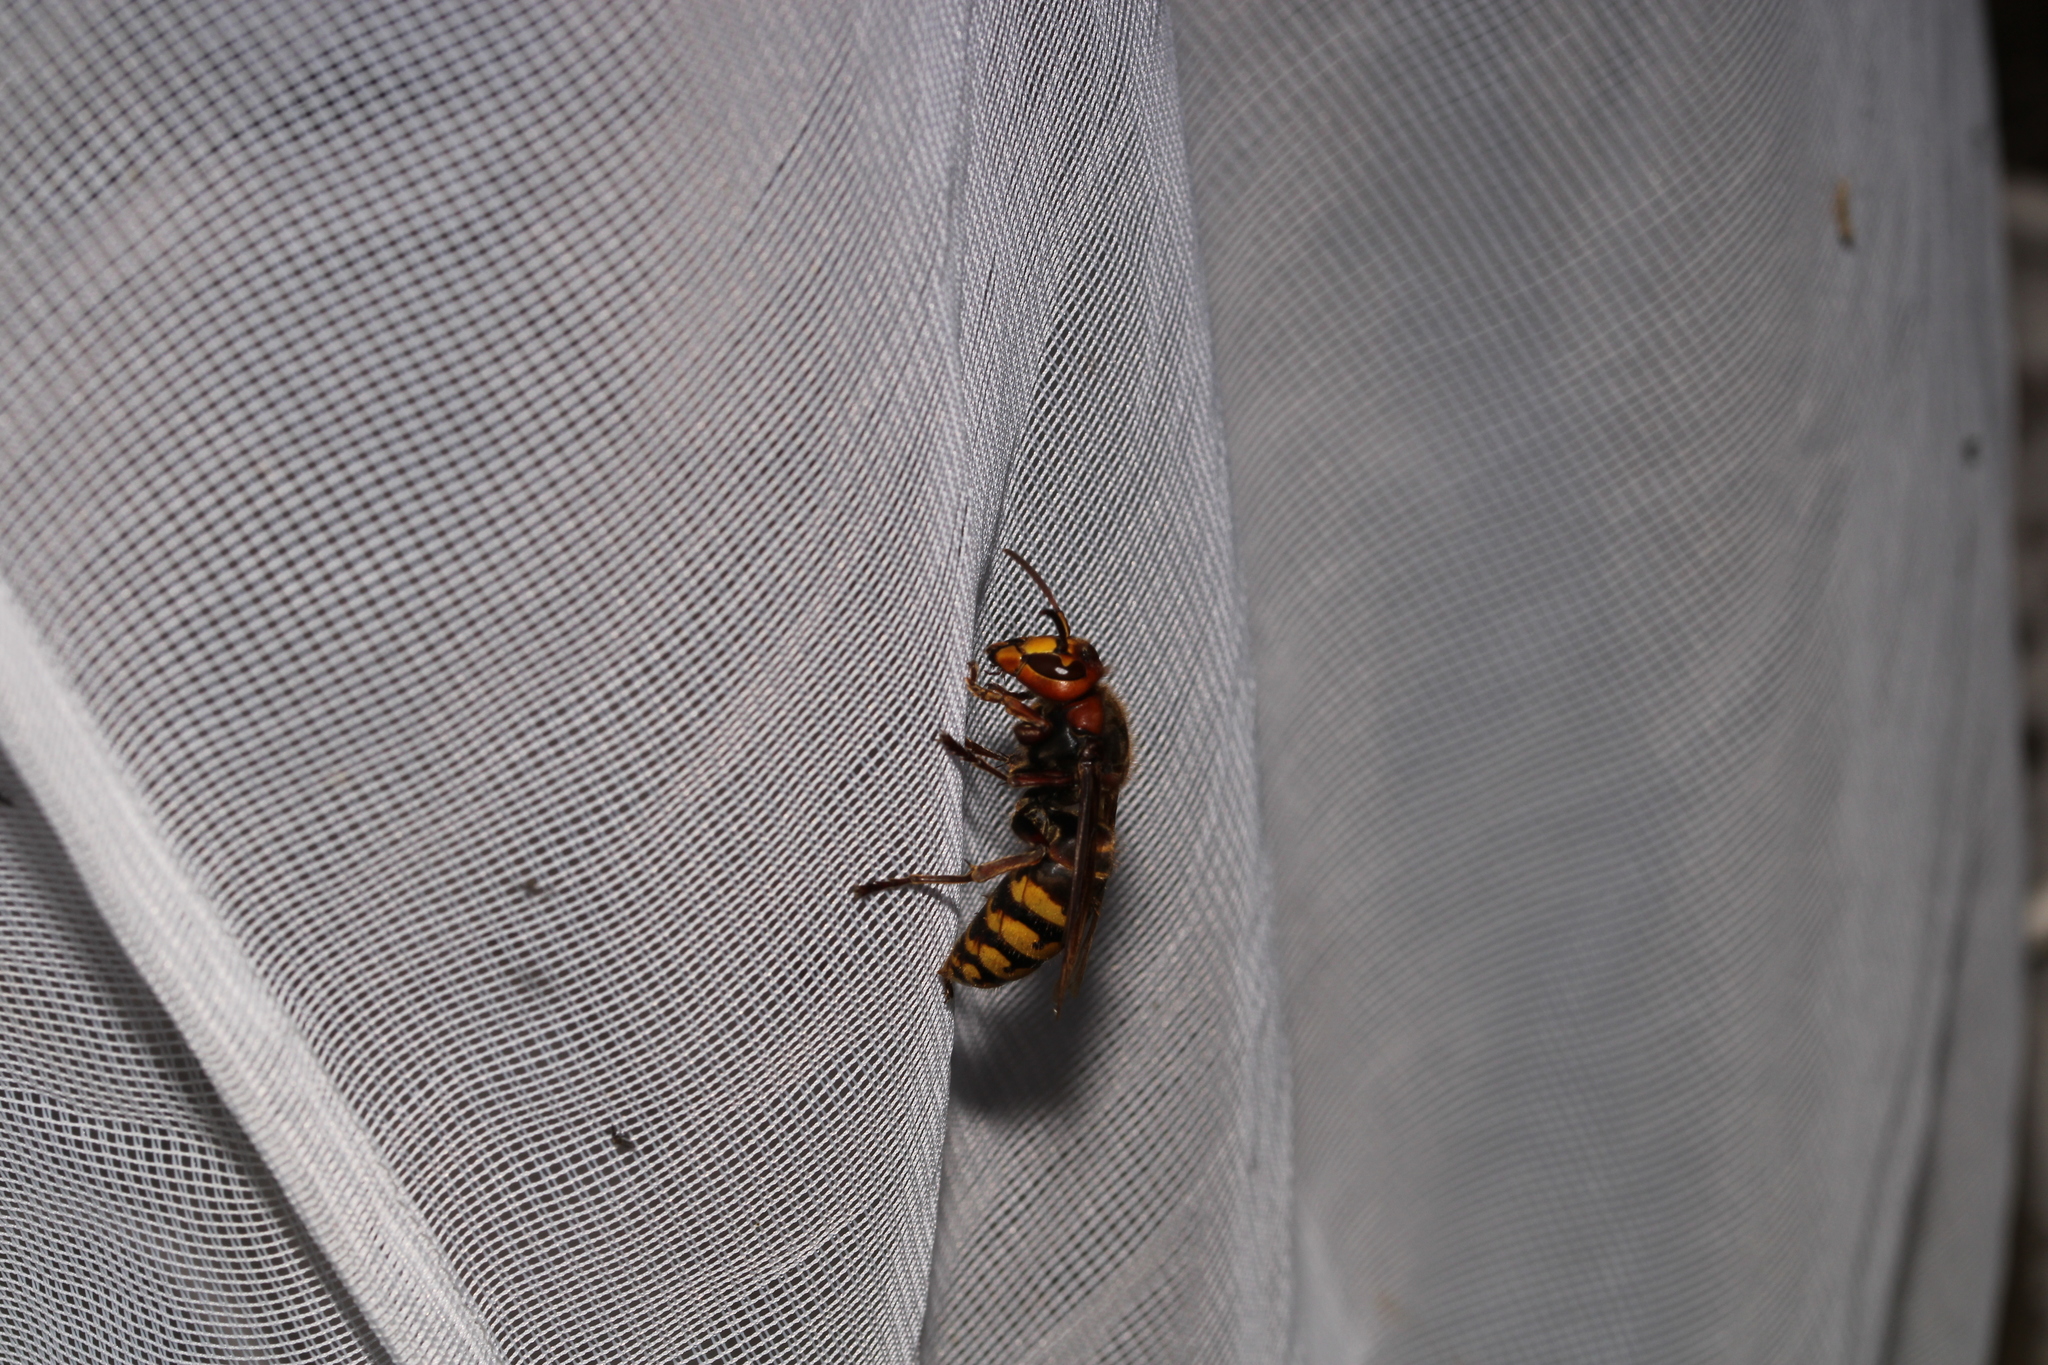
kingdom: Animalia
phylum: Arthropoda
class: Insecta
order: Hymenoptera
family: Vespidae
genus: Vespa
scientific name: Vespa crabro
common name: Hornet
